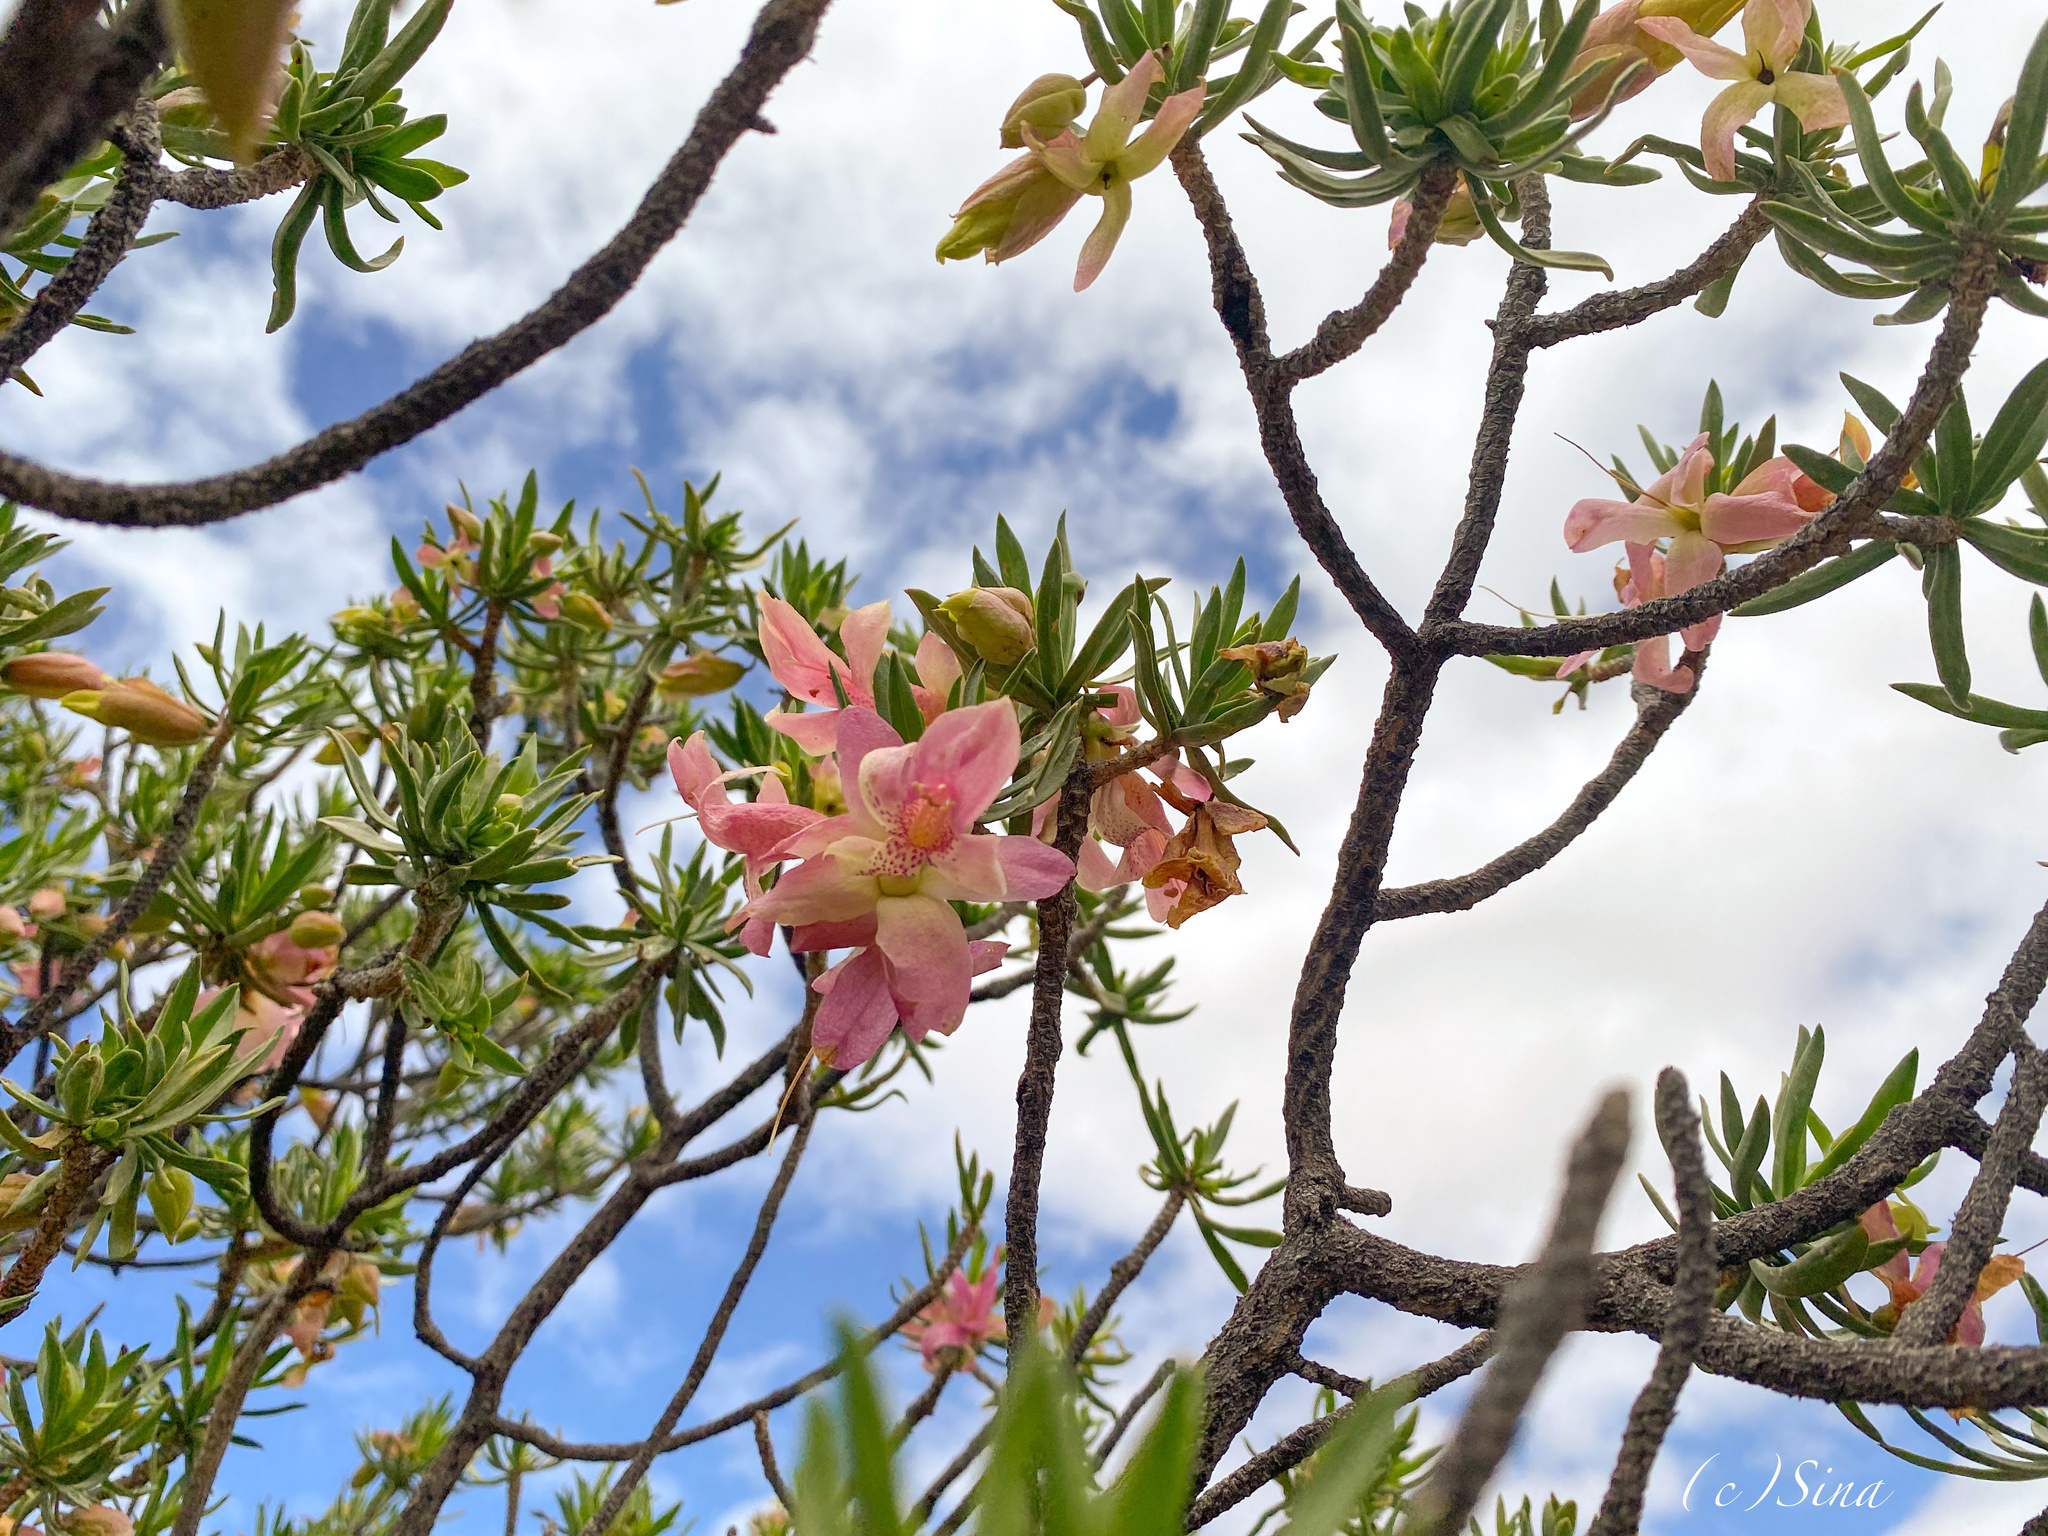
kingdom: Plantae
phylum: Tracheophyta
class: Magnoliopsida
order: Lamiales
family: Scrophulariaceae
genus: Eremophila
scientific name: Eremophila miniata
